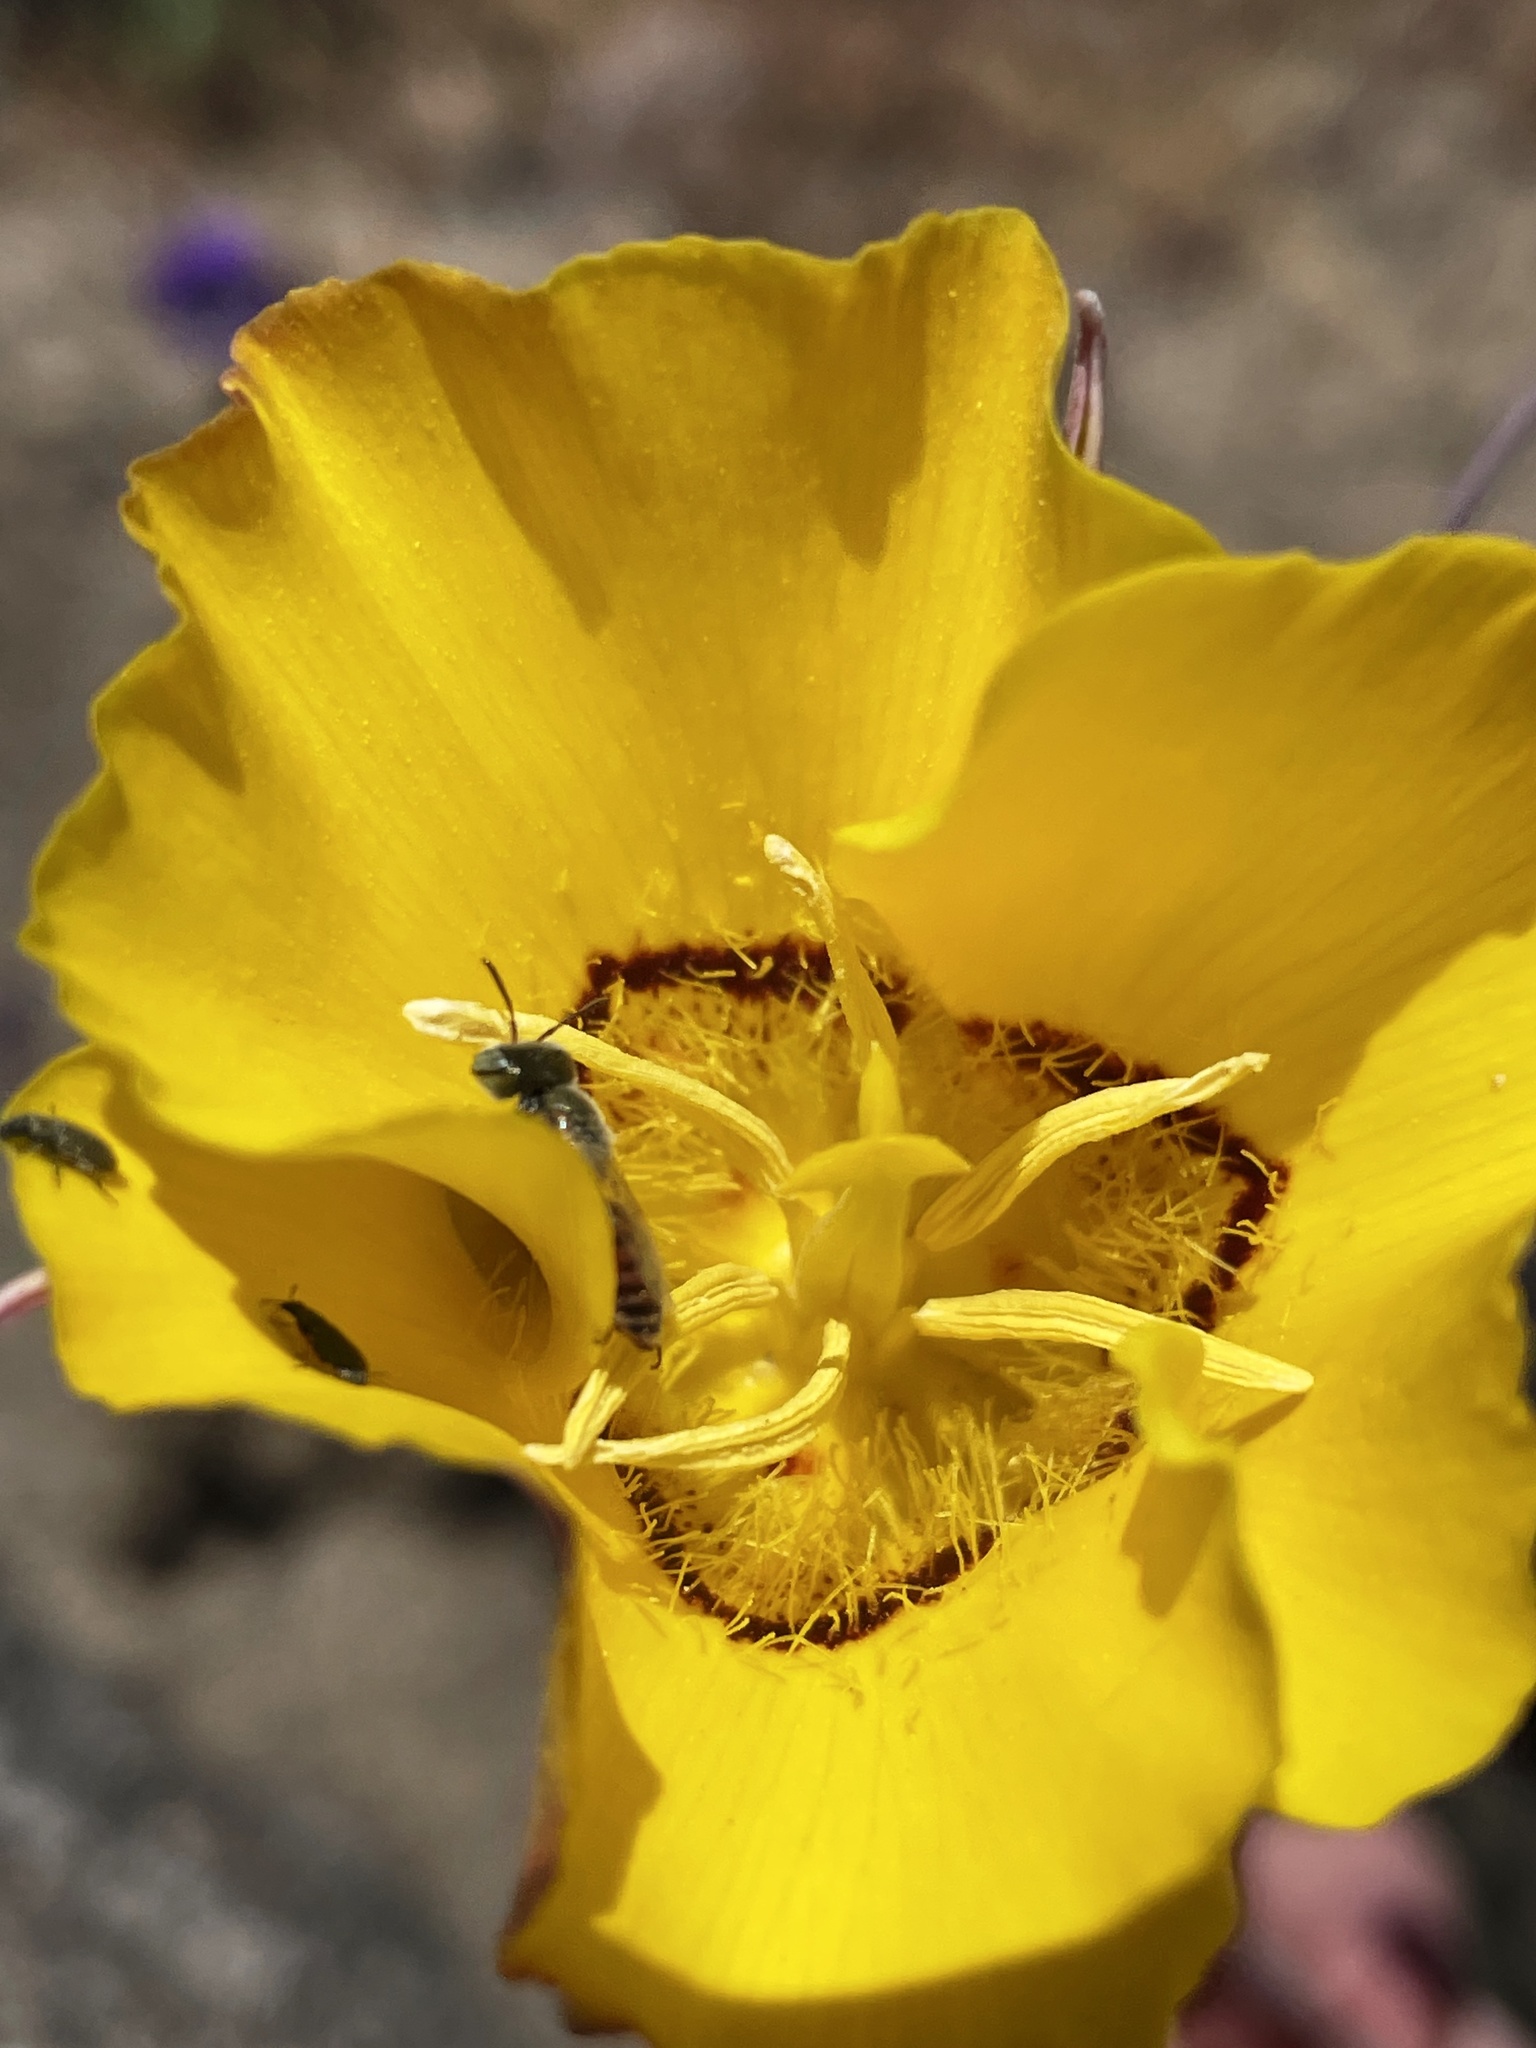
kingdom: Plantae
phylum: Tracheophyta
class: Liliopsida
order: Liliales
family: Liliaceae
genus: Calochortus
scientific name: Calochortus concolor
